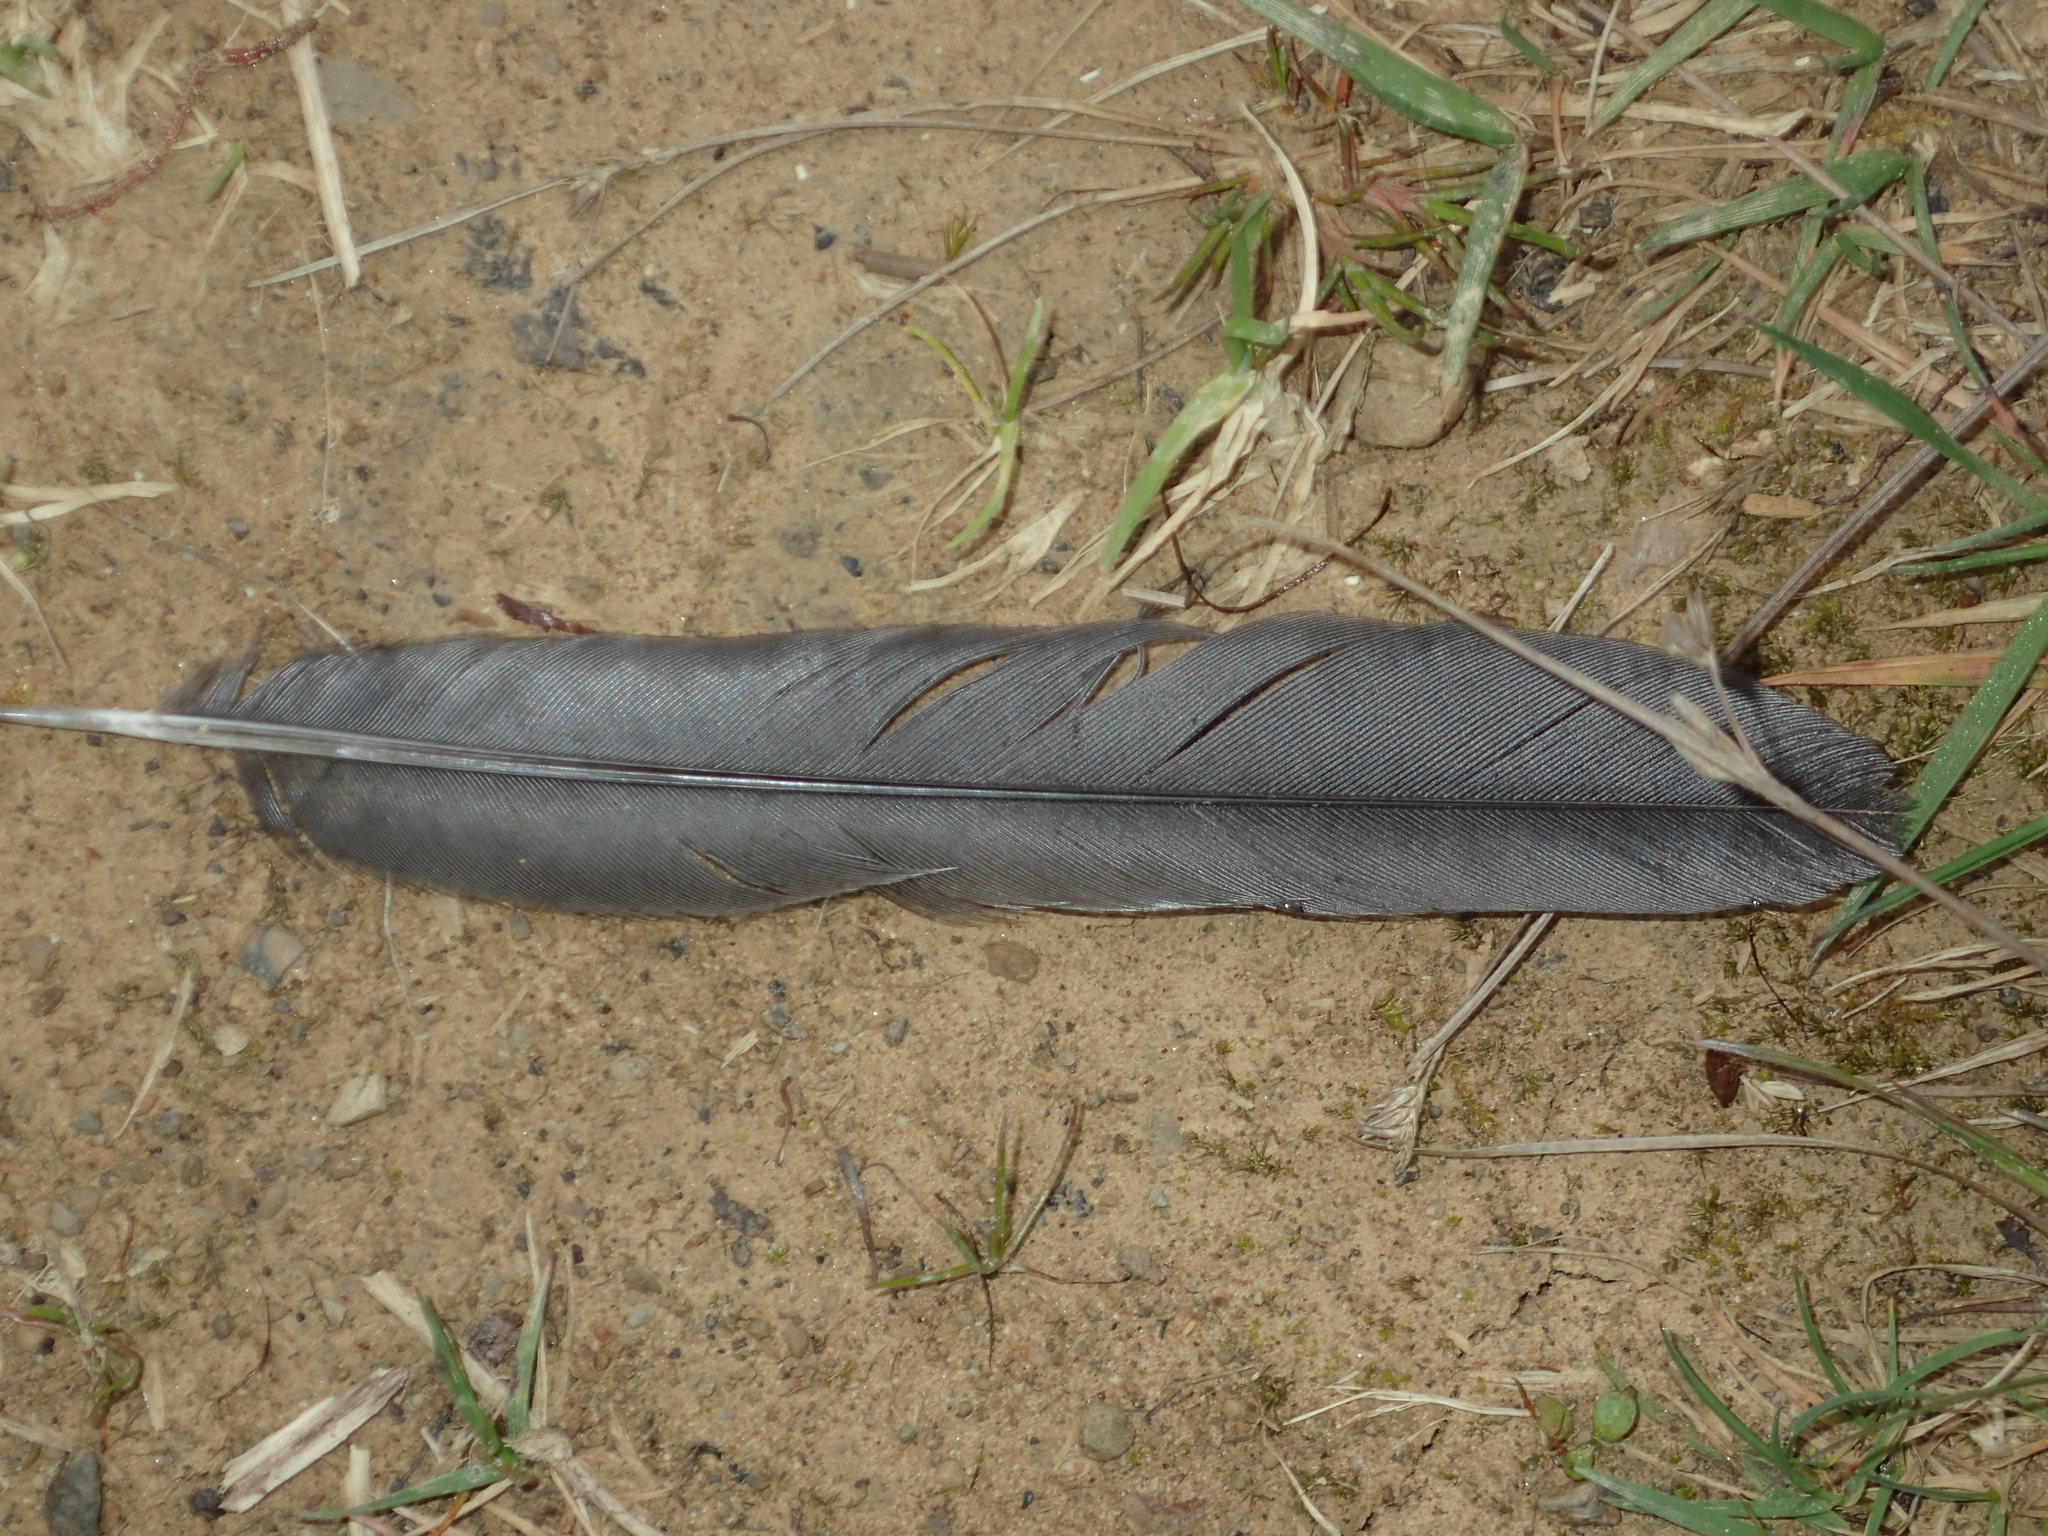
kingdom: Animalia
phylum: Chordata
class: Aves
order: Falconiformes
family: Falconidae
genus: Falco
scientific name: Falco novaeseelandiae
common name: New zealand falcon
